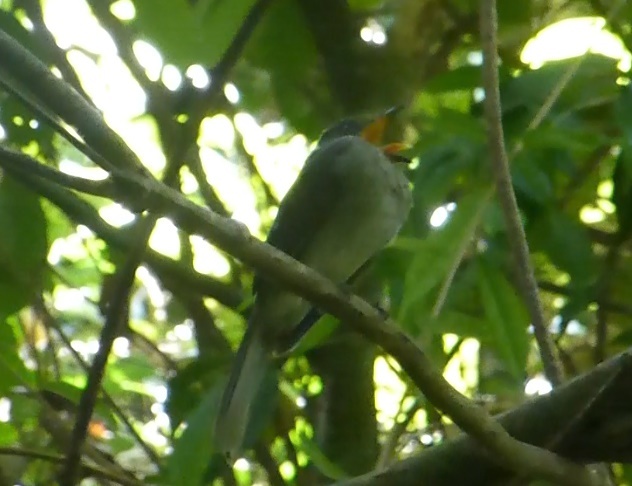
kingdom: Animalia
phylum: Chordata
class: Aves
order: Passeriformes
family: Cotingidae
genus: Lipaugus
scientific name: Lipaugus vociferans
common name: Screaming piha
